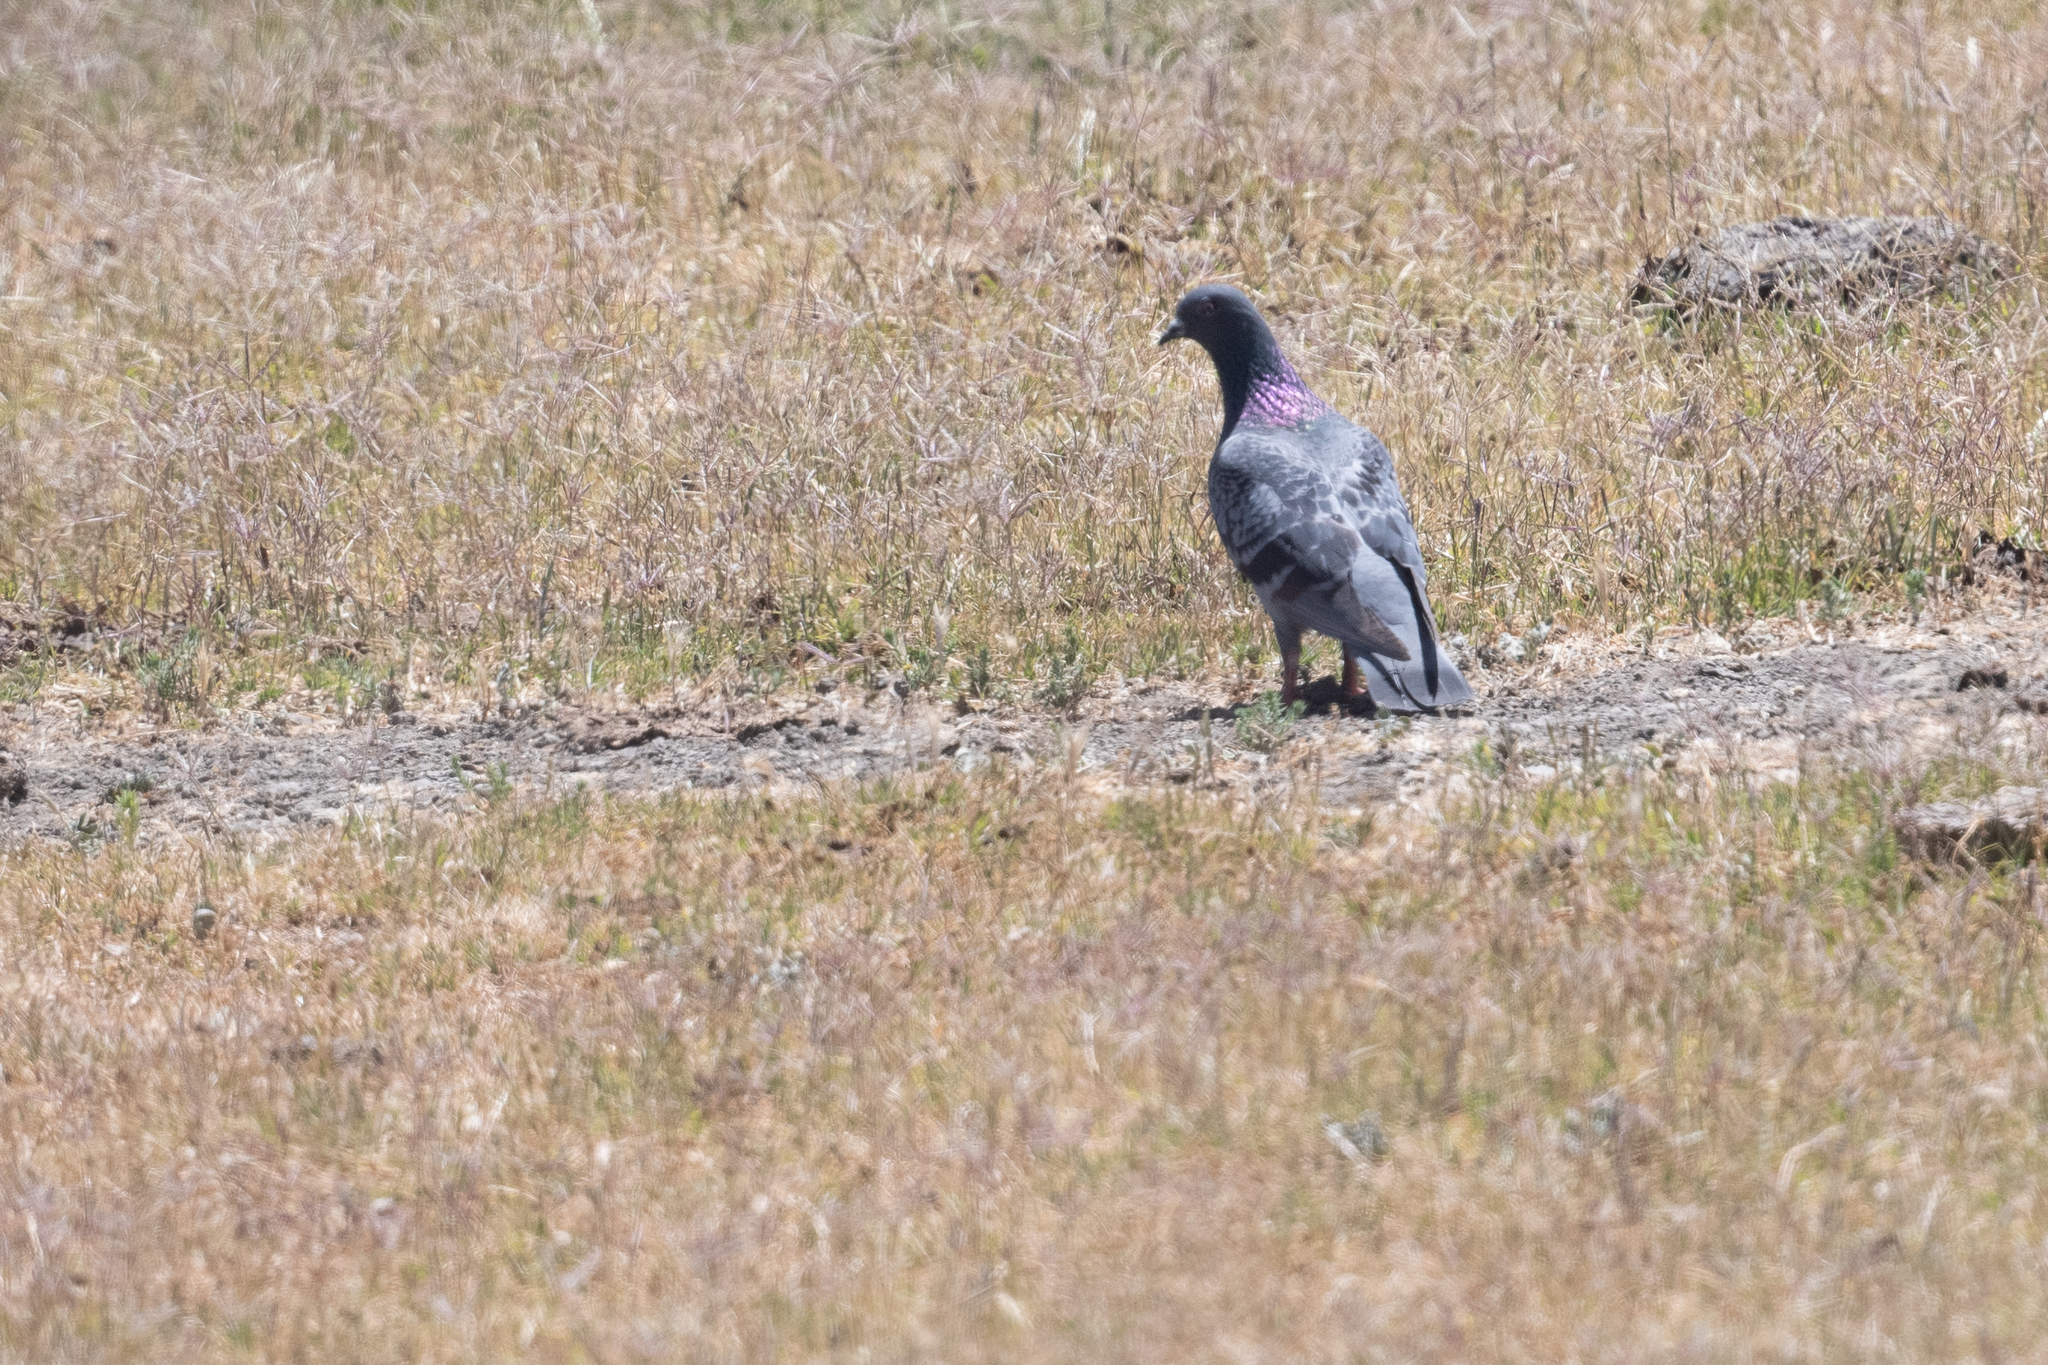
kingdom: Animalia
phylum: Chordata
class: Aves
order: Columbiformes
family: Columbidae
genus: Columba
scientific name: Columba livia
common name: Rock pigeon
